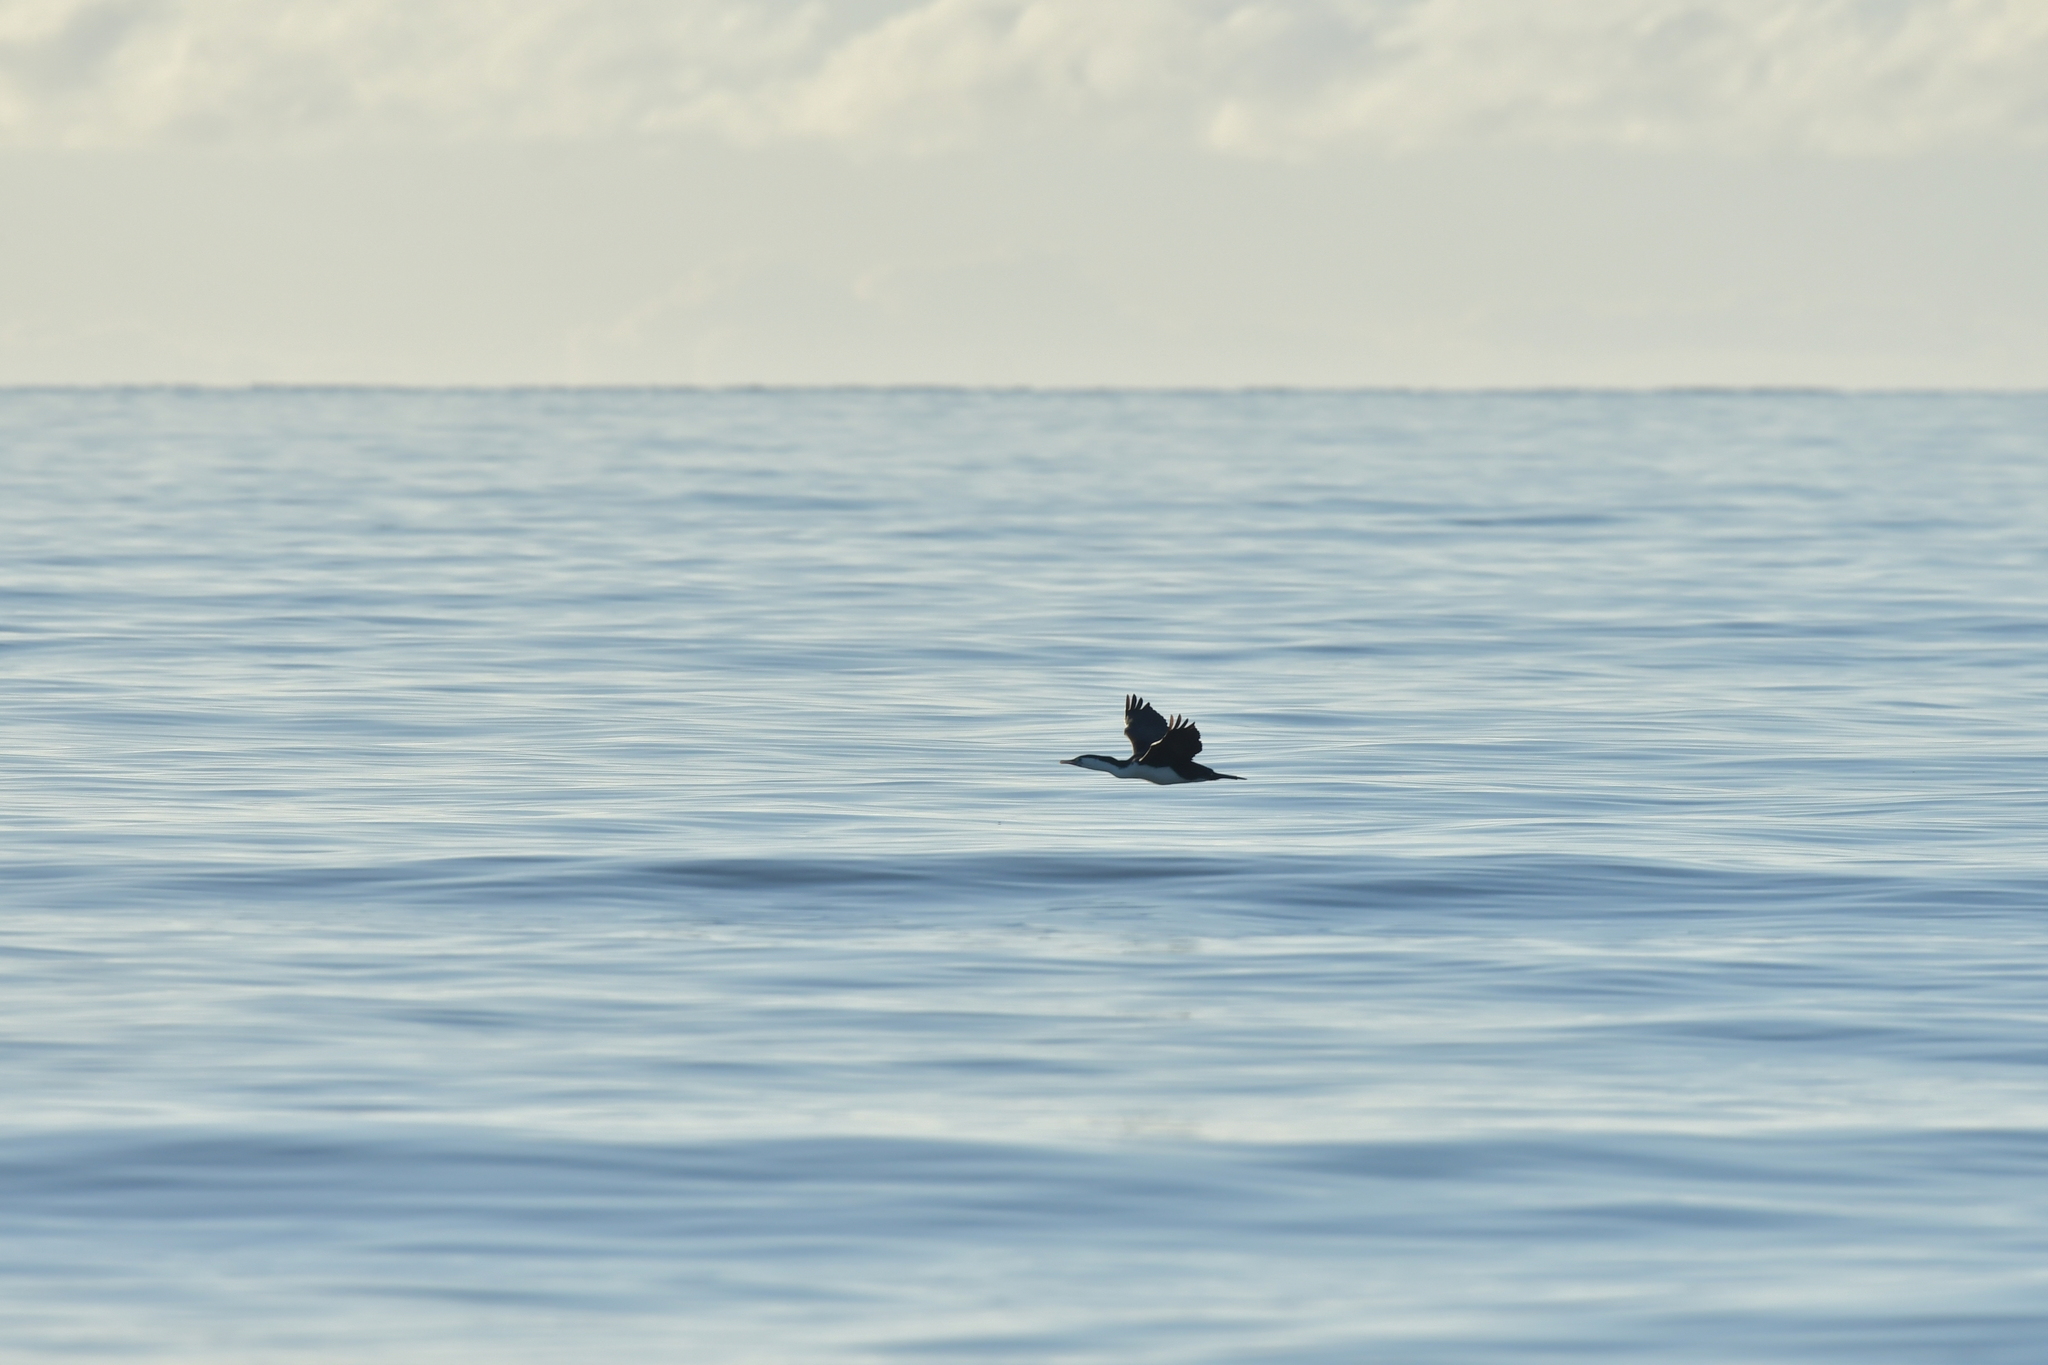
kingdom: Animalia
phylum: Chordata
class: Aves
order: Suliformes
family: Phalacrocoracidae
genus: Phalacrocorax
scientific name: Phalacrocorax varius
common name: Pied cormorant
